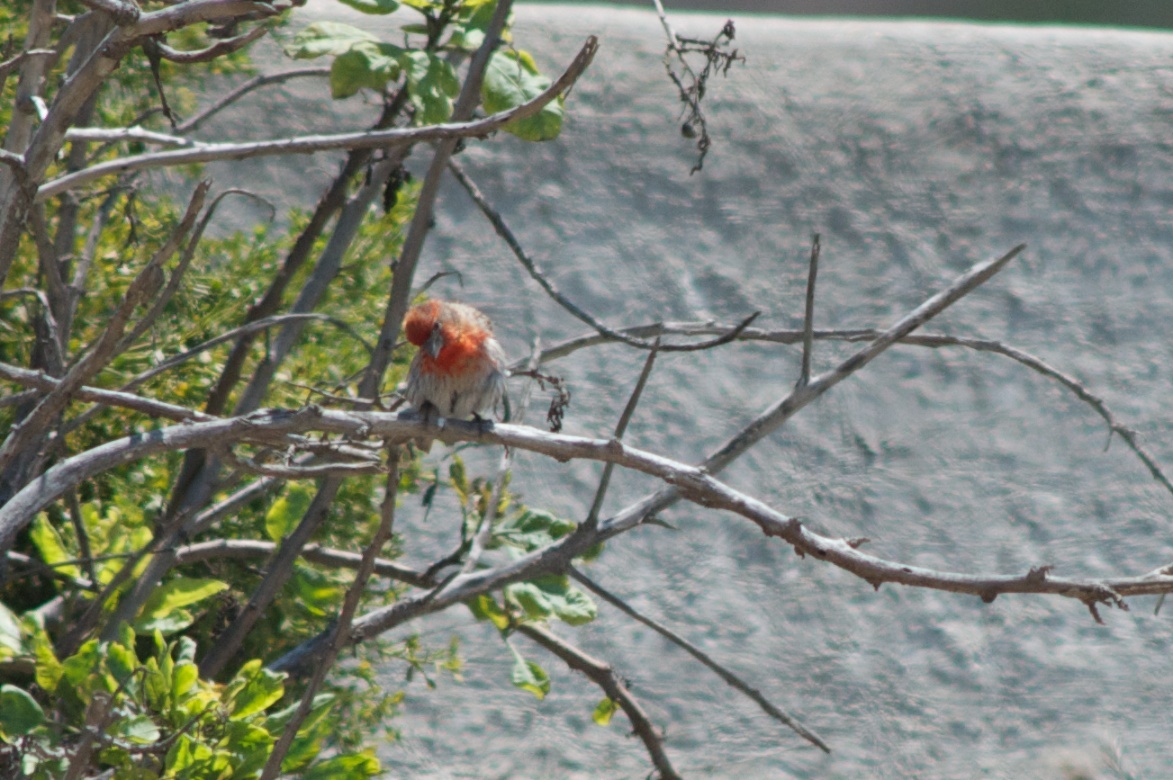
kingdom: Animalia
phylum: Chordata
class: Aves
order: Passeriformes
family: Fringillidae
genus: Haemorhous
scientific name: Haemorhous mexicanus
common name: House finch
